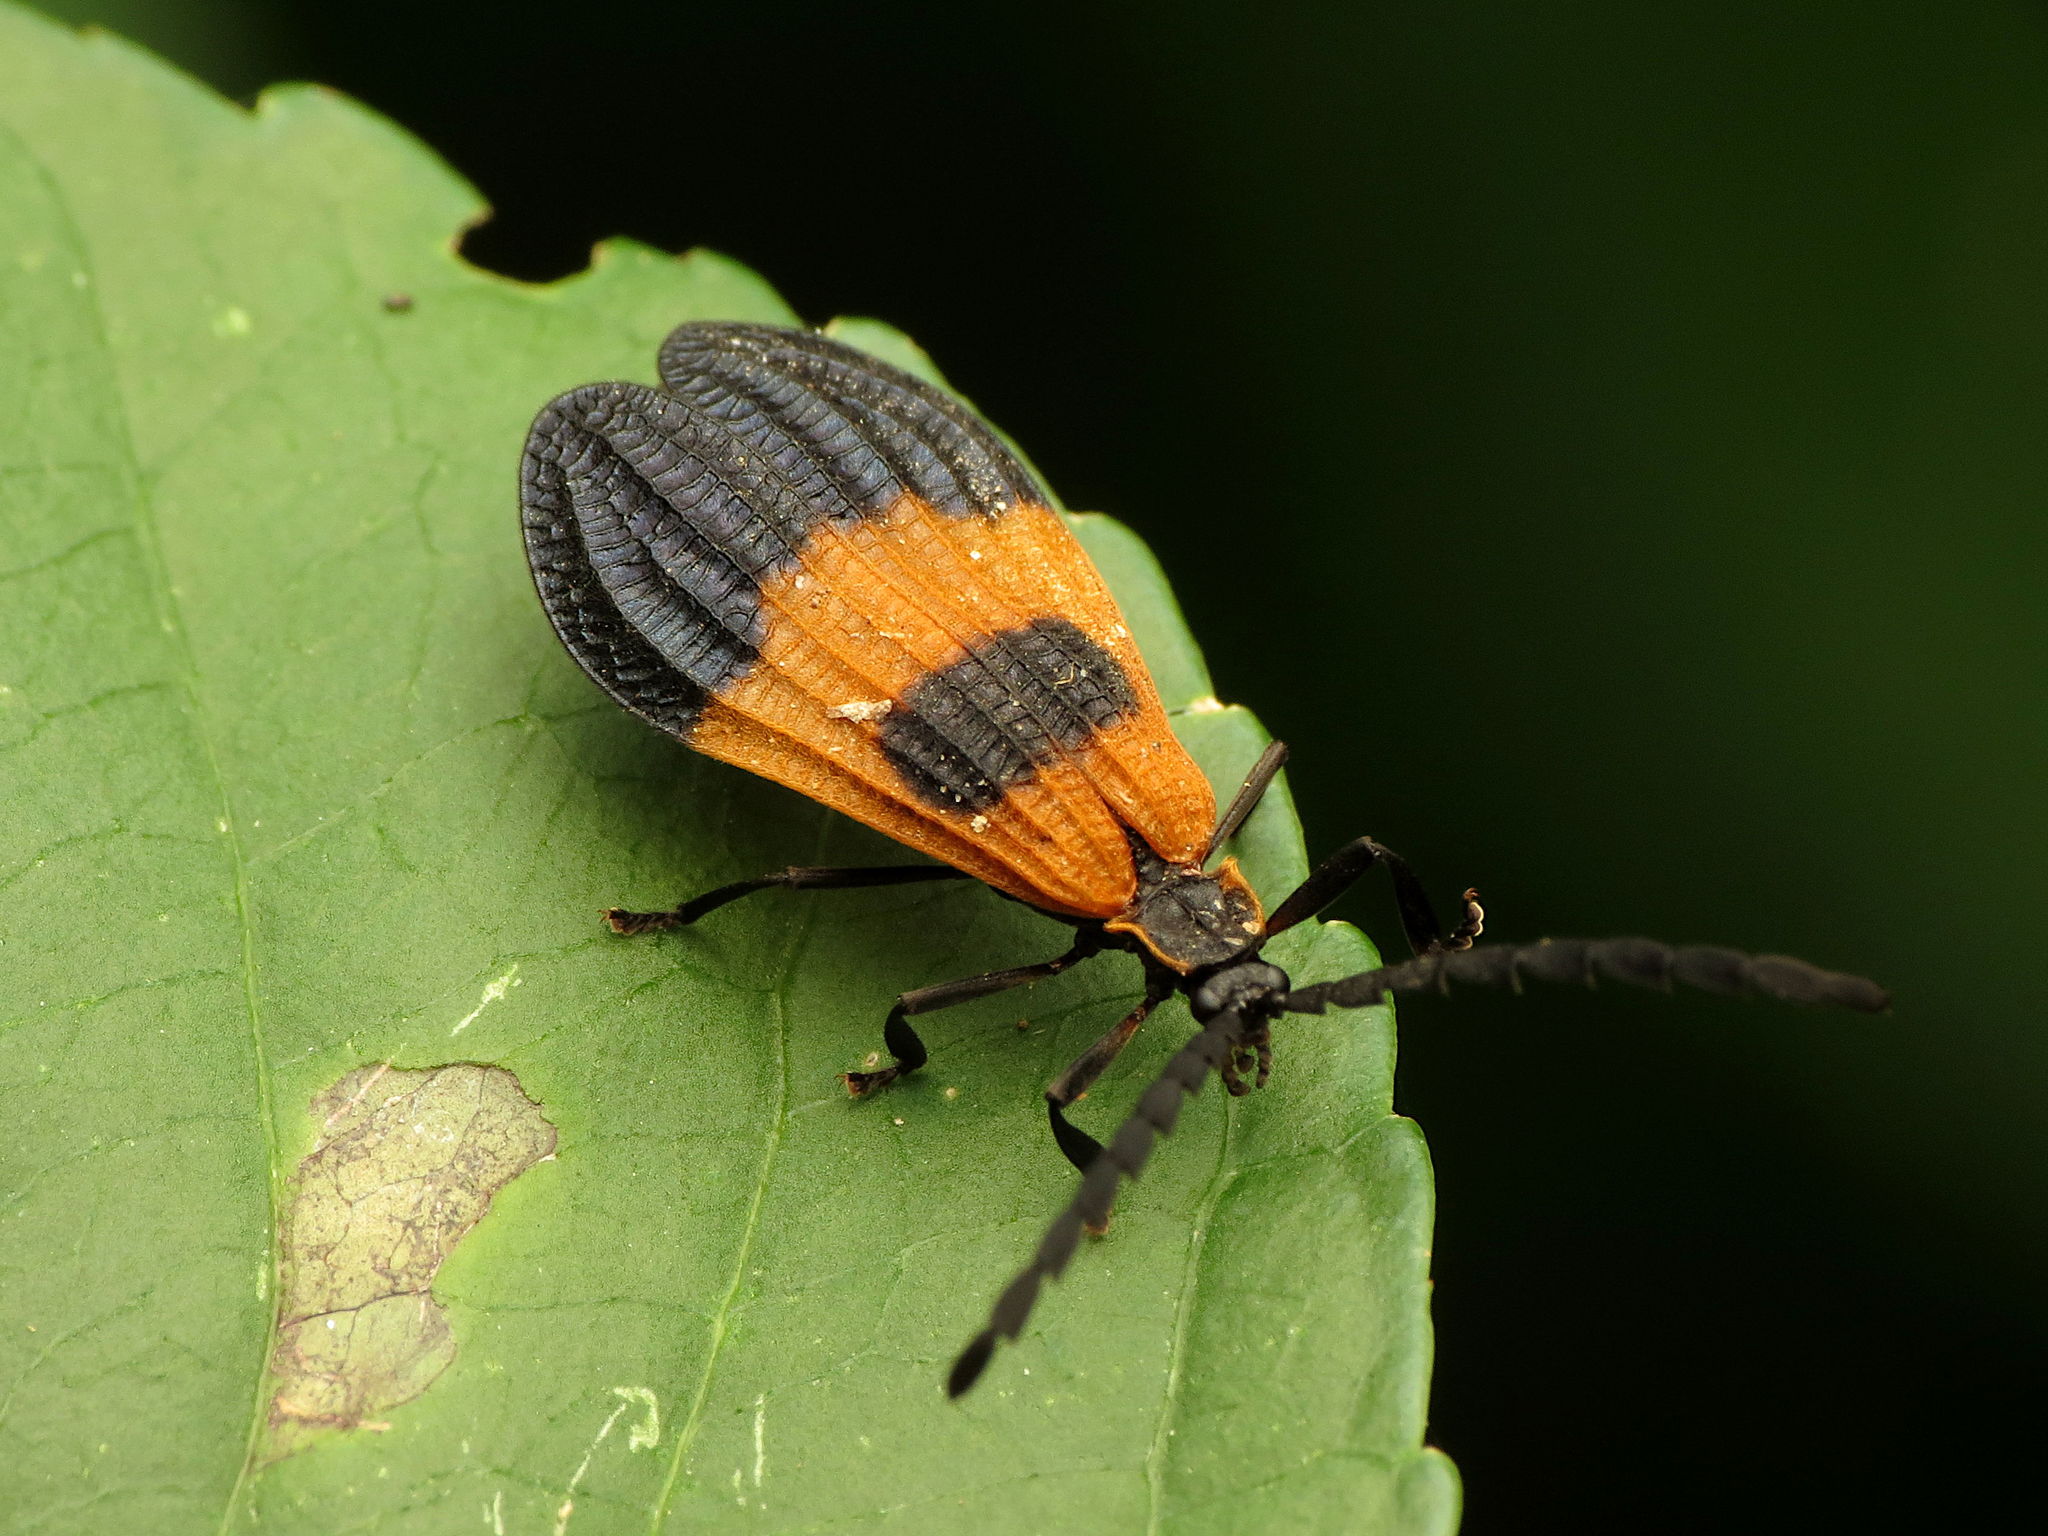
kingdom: Animalia
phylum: Arthropoda
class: Insecta
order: Coleoptera
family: Lycidae
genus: Calopteron
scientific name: Calopteron terminale
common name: End band net-winged beetle
